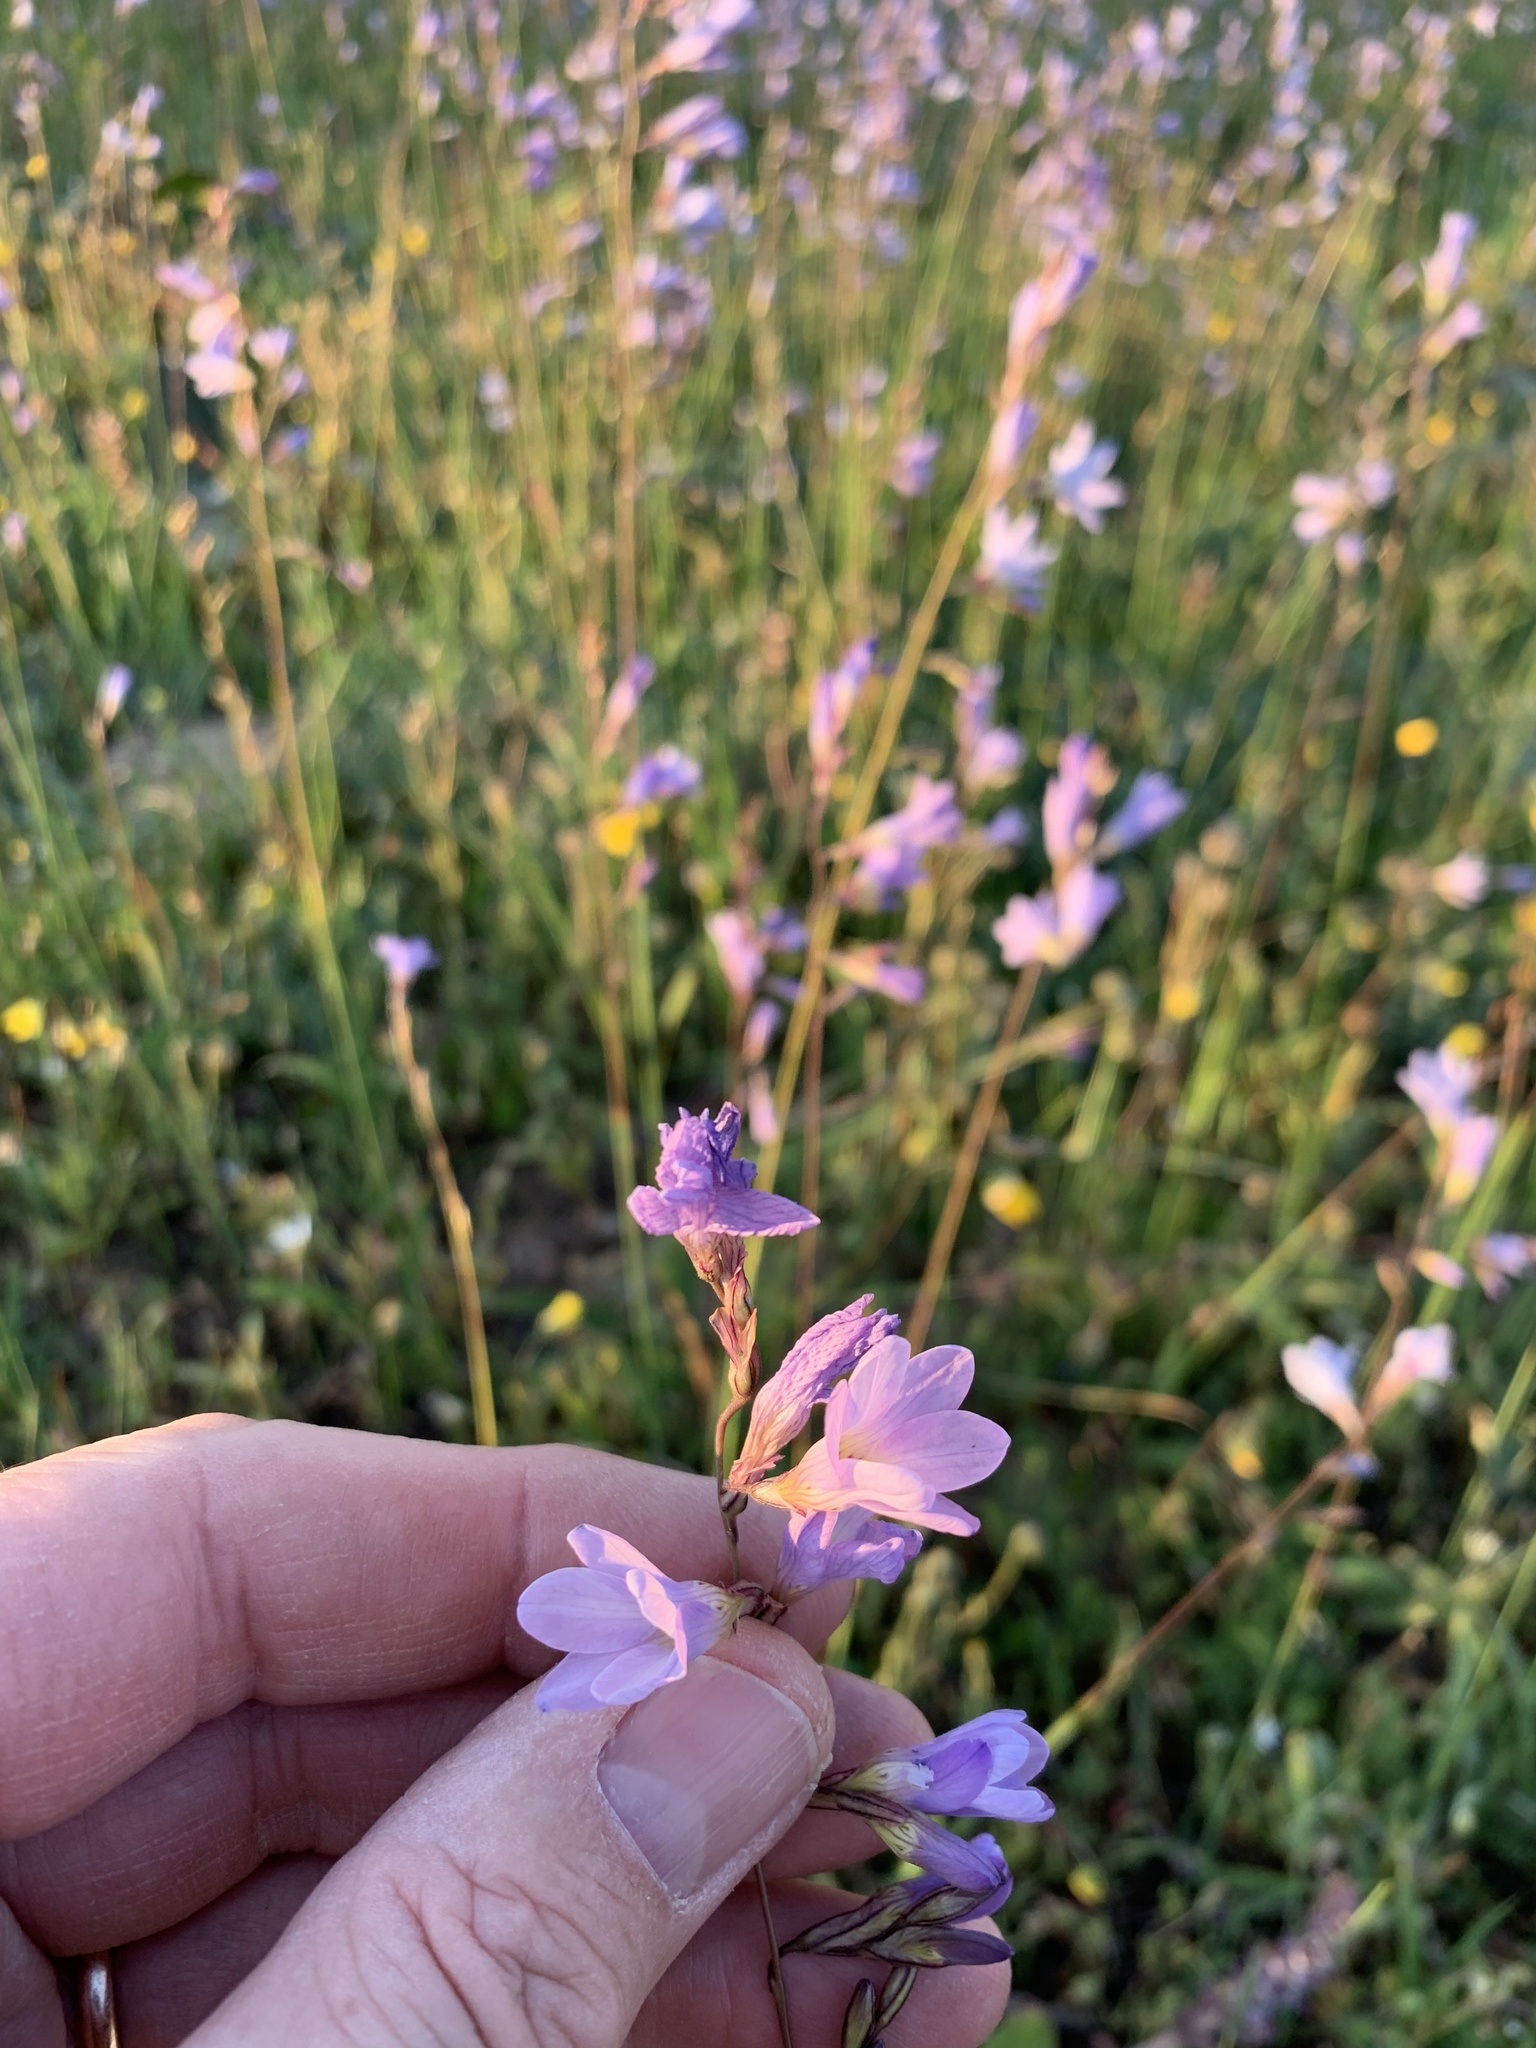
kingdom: Plantae
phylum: Tracheophyta
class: Liliopsida
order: Asparagales
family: Iridaceae
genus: Ixia
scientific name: Ixia rapunculoides
